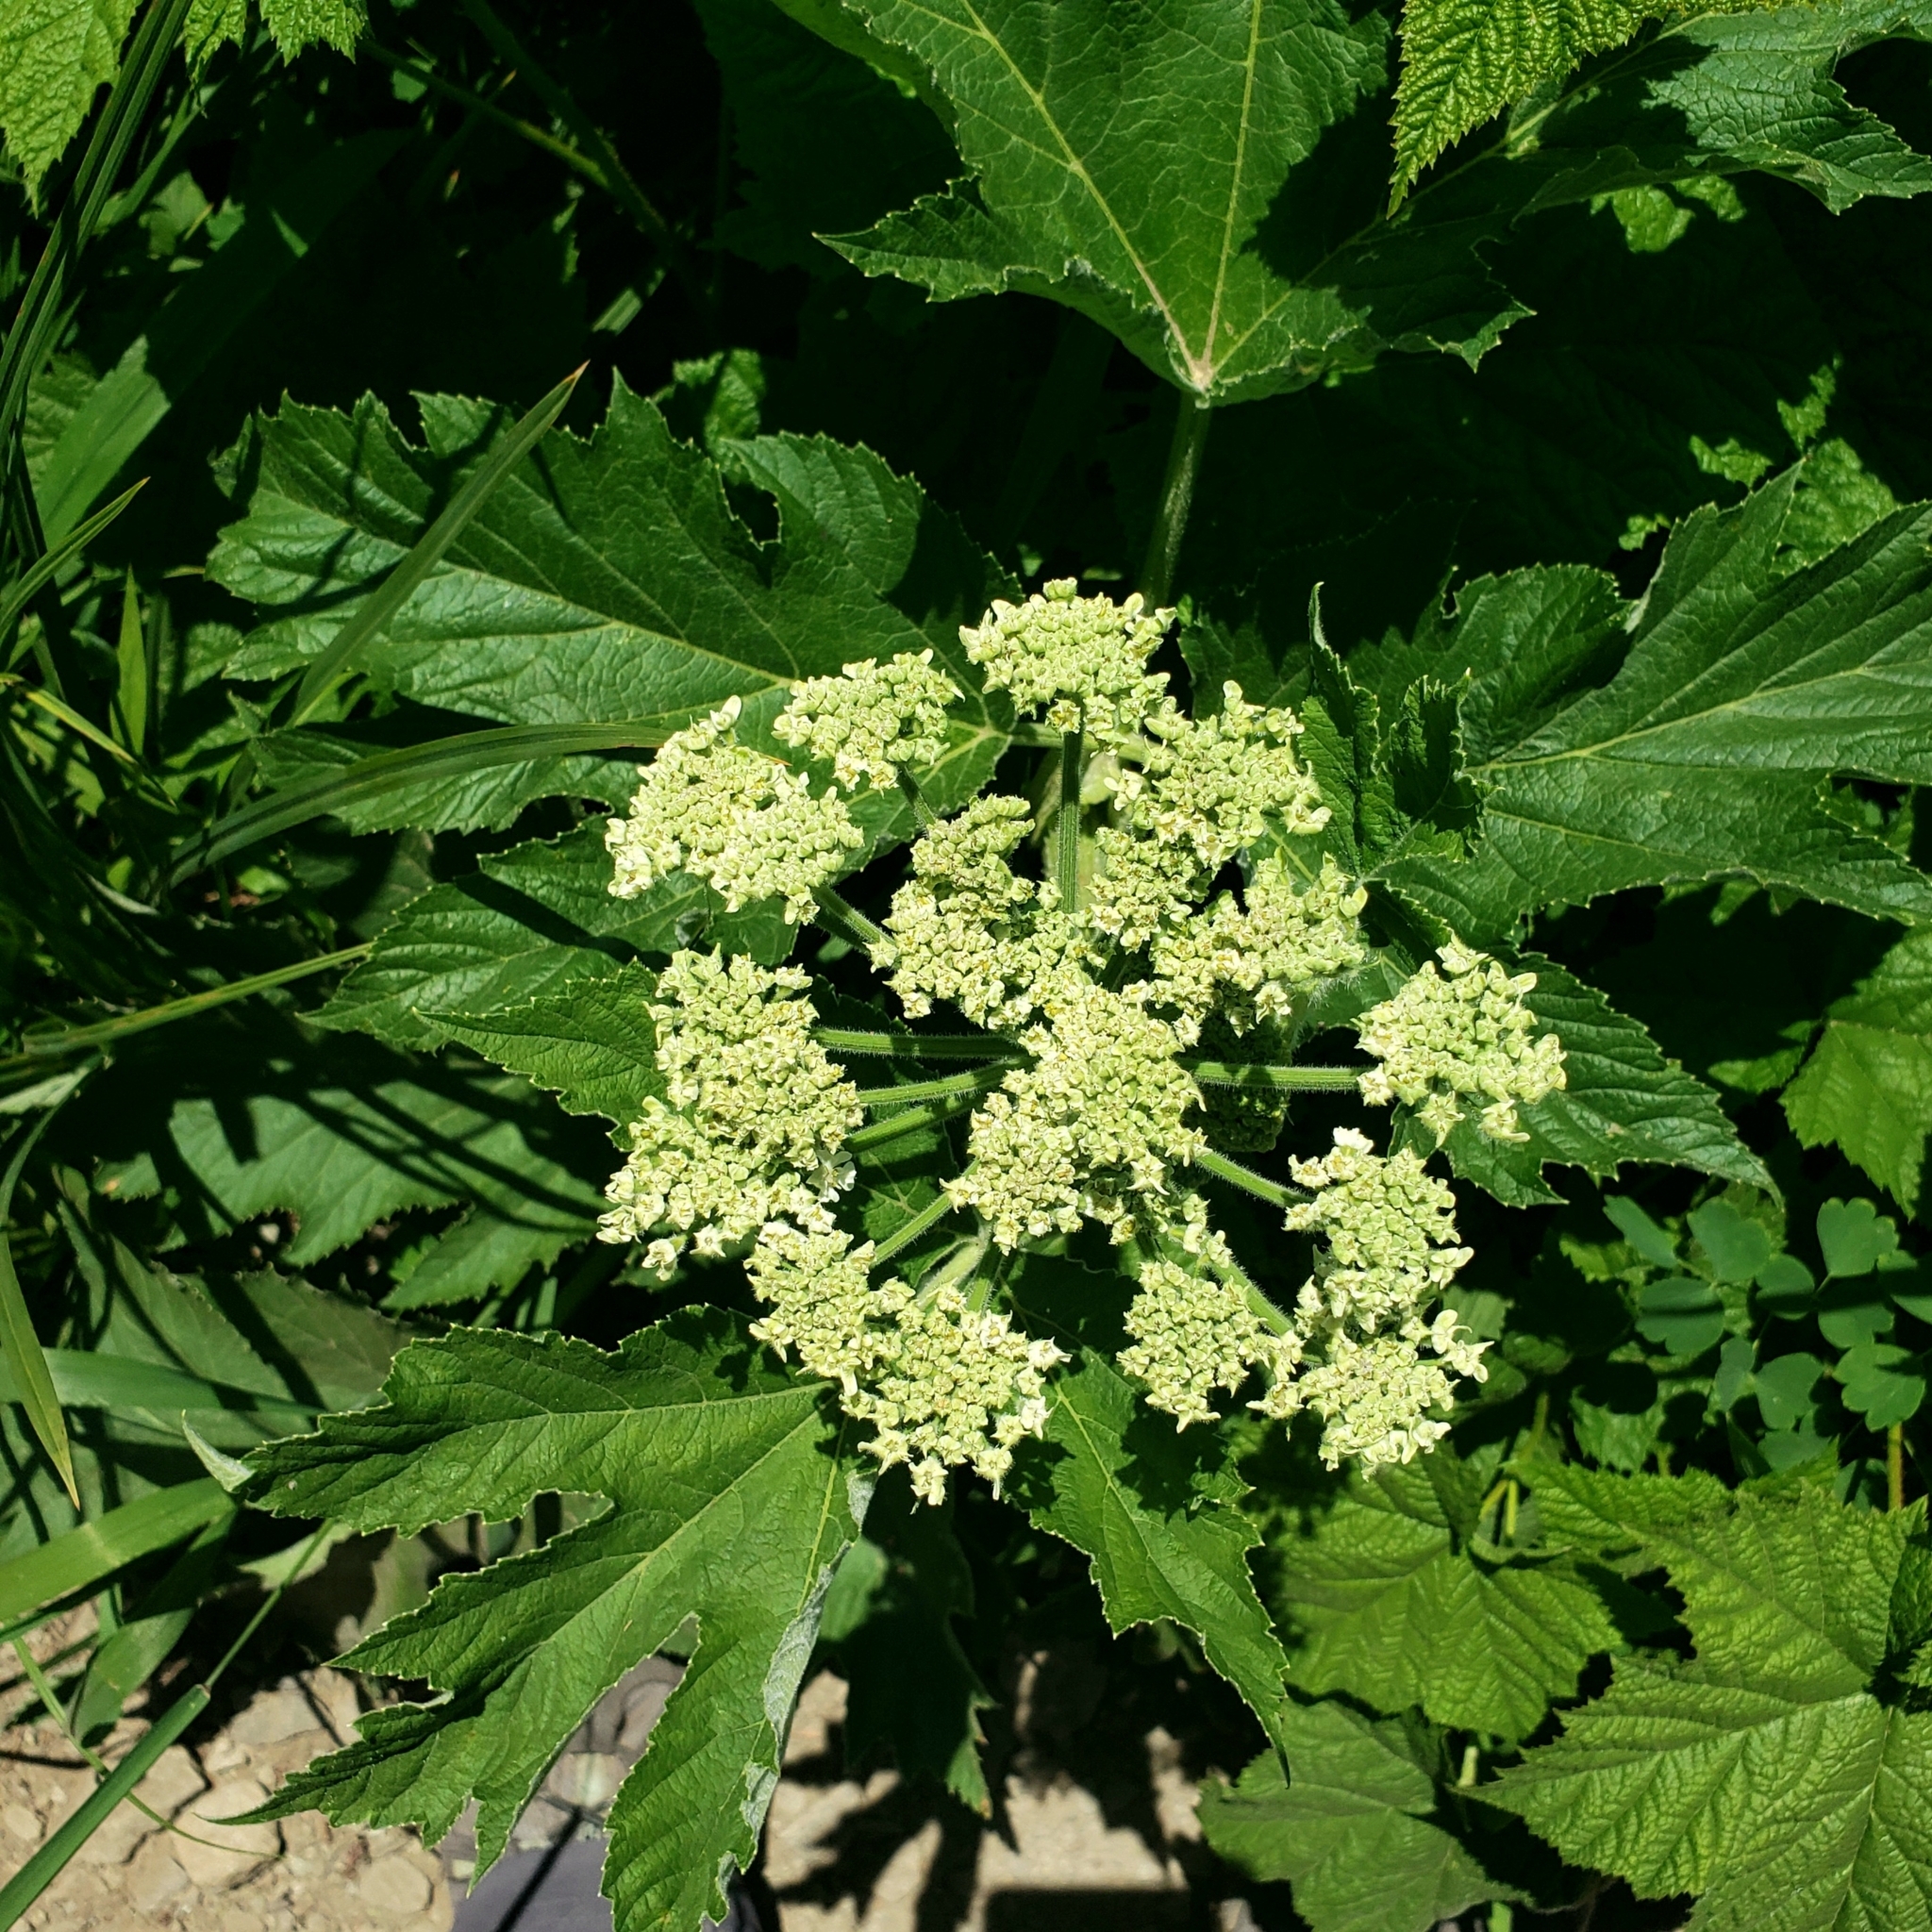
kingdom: Plantae
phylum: Tracheophyta
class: Magnoliopsida
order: Apiales
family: Apiaceae
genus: Heracleum
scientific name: Heracleum maximum
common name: American cow parsnip
